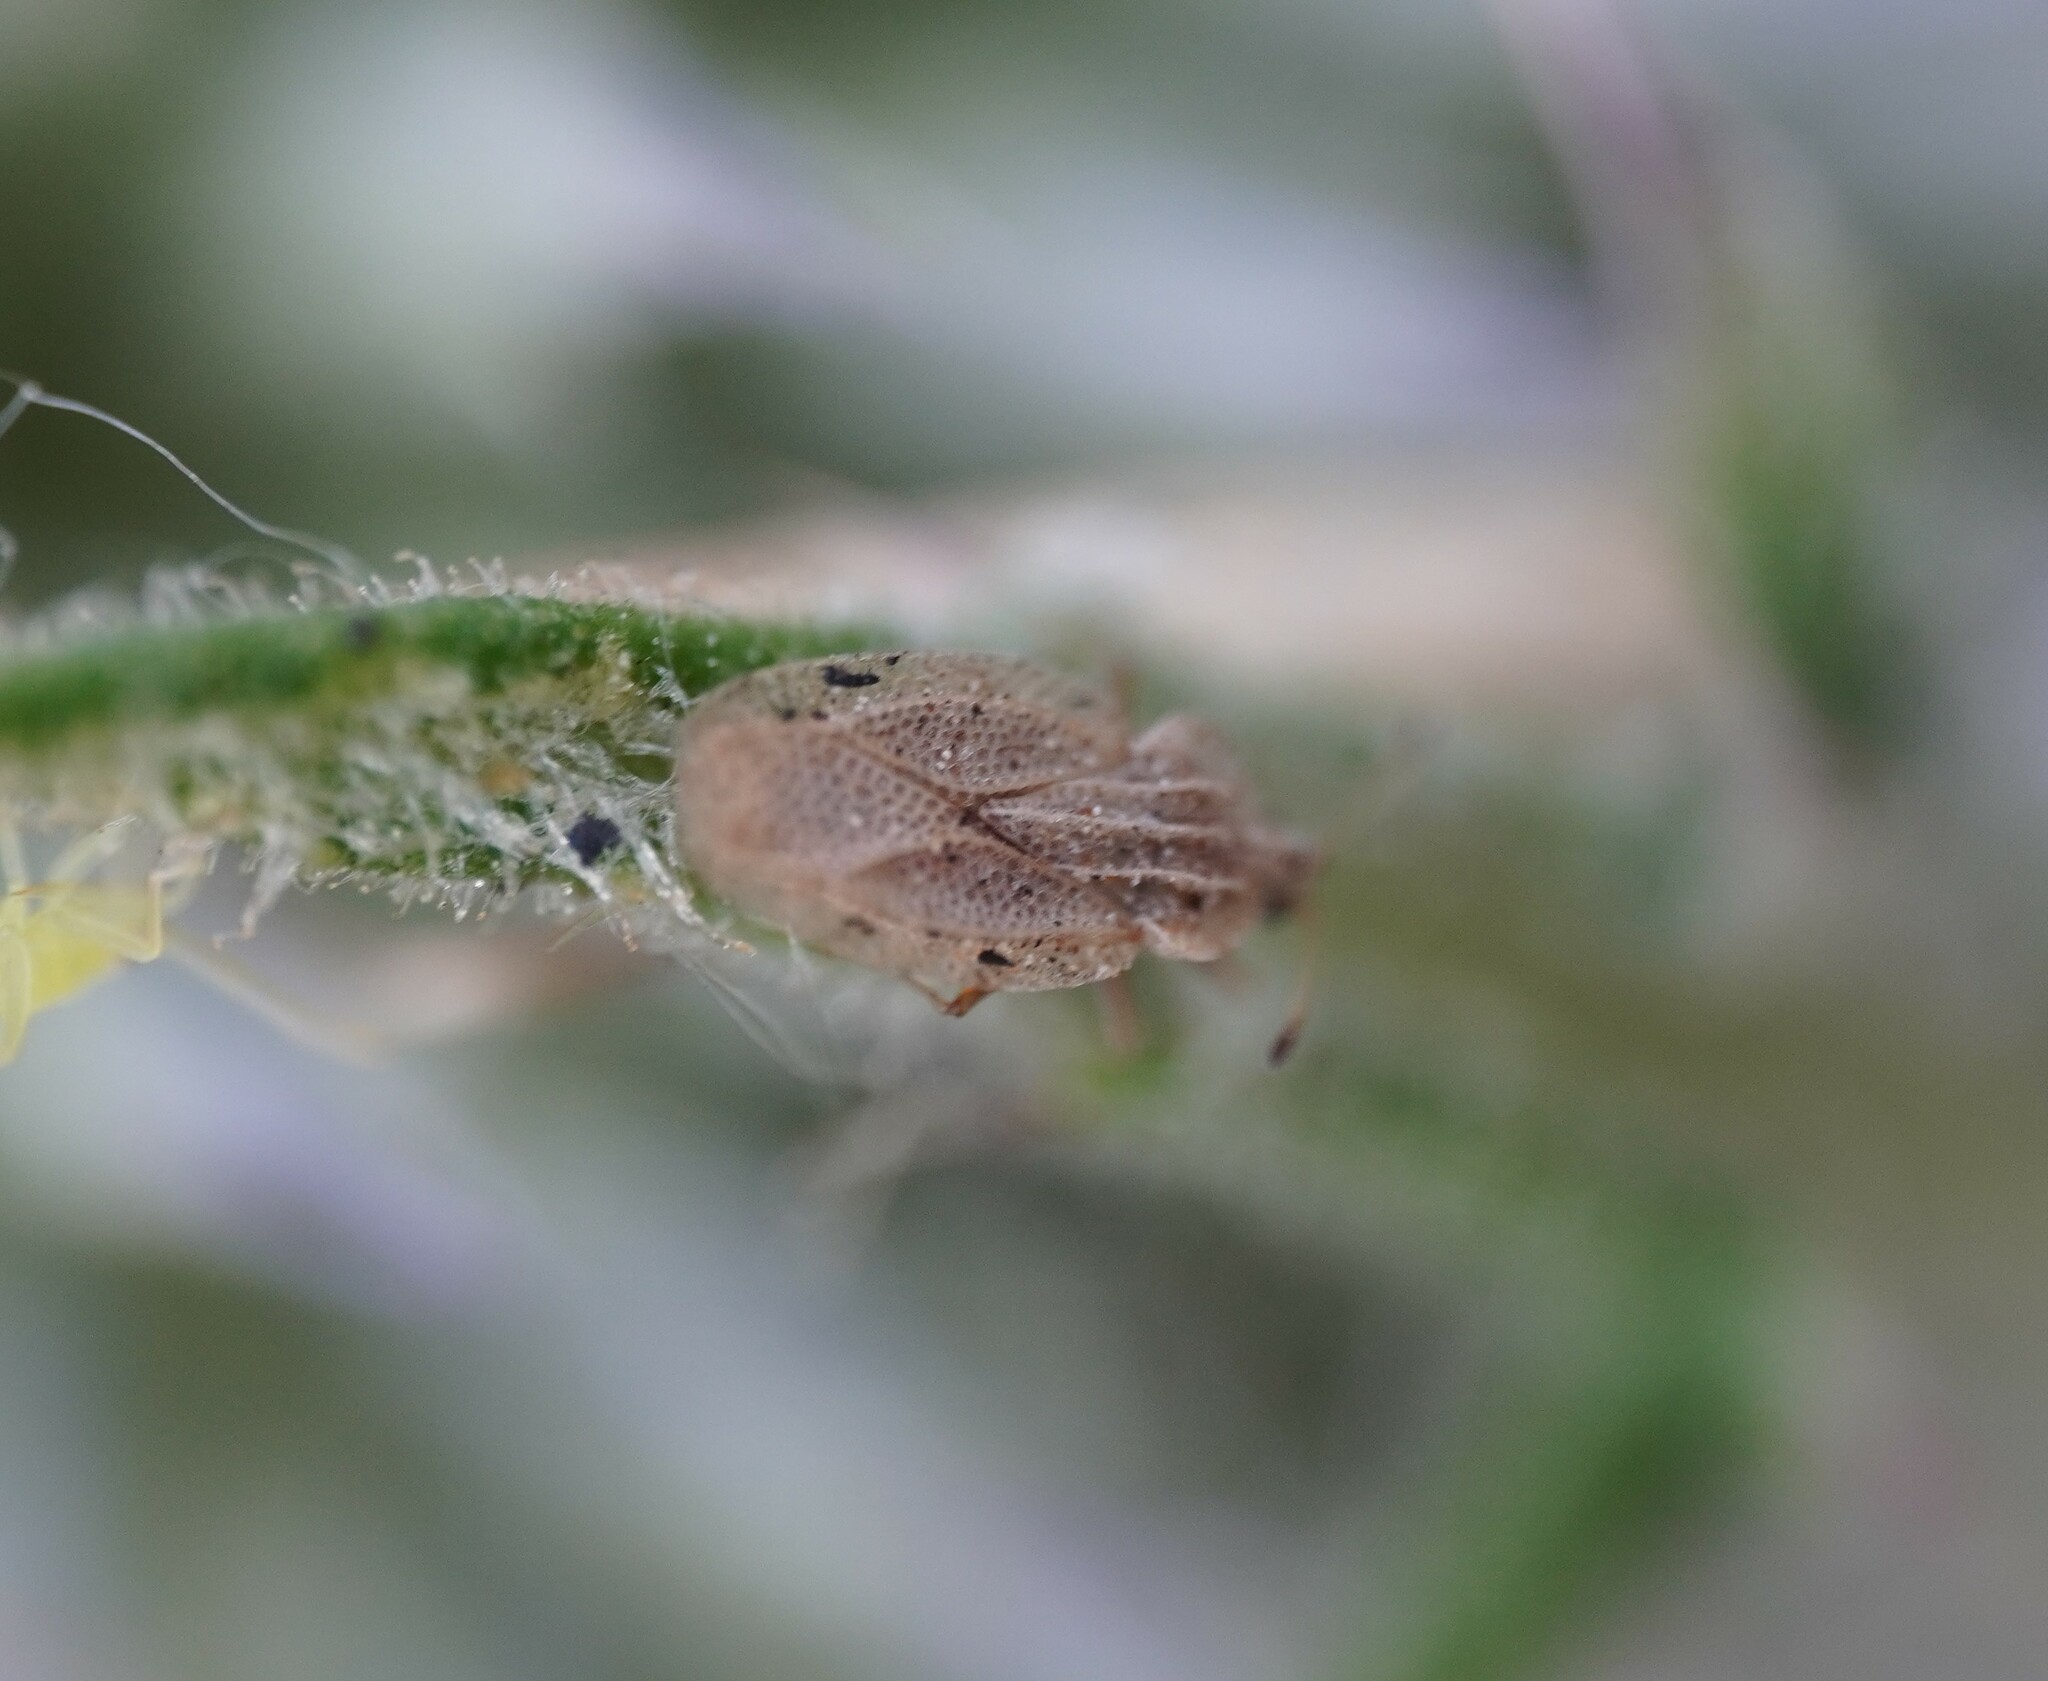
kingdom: Plantae
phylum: Tracheophyta
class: Liliopsida
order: Poales
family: Juncaceae
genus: Elasmotropis
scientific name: Elasmotropis testacea
